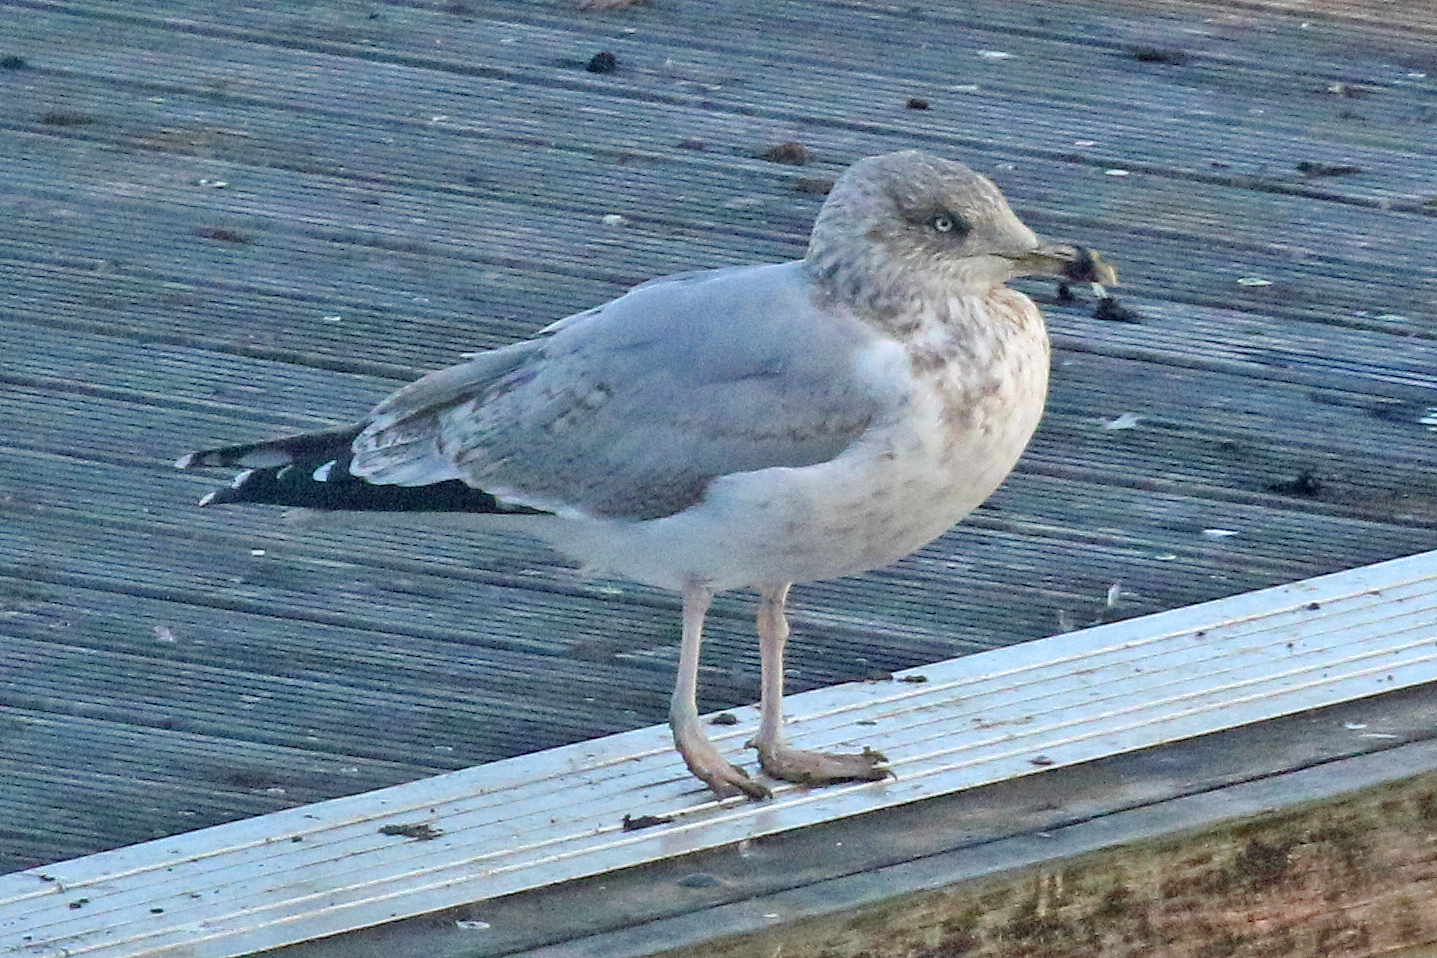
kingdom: Animalia
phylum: Chordata
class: Aves
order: Charadriiformes
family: Laridae
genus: Larus
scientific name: Larus argentatus
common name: Herring gull
